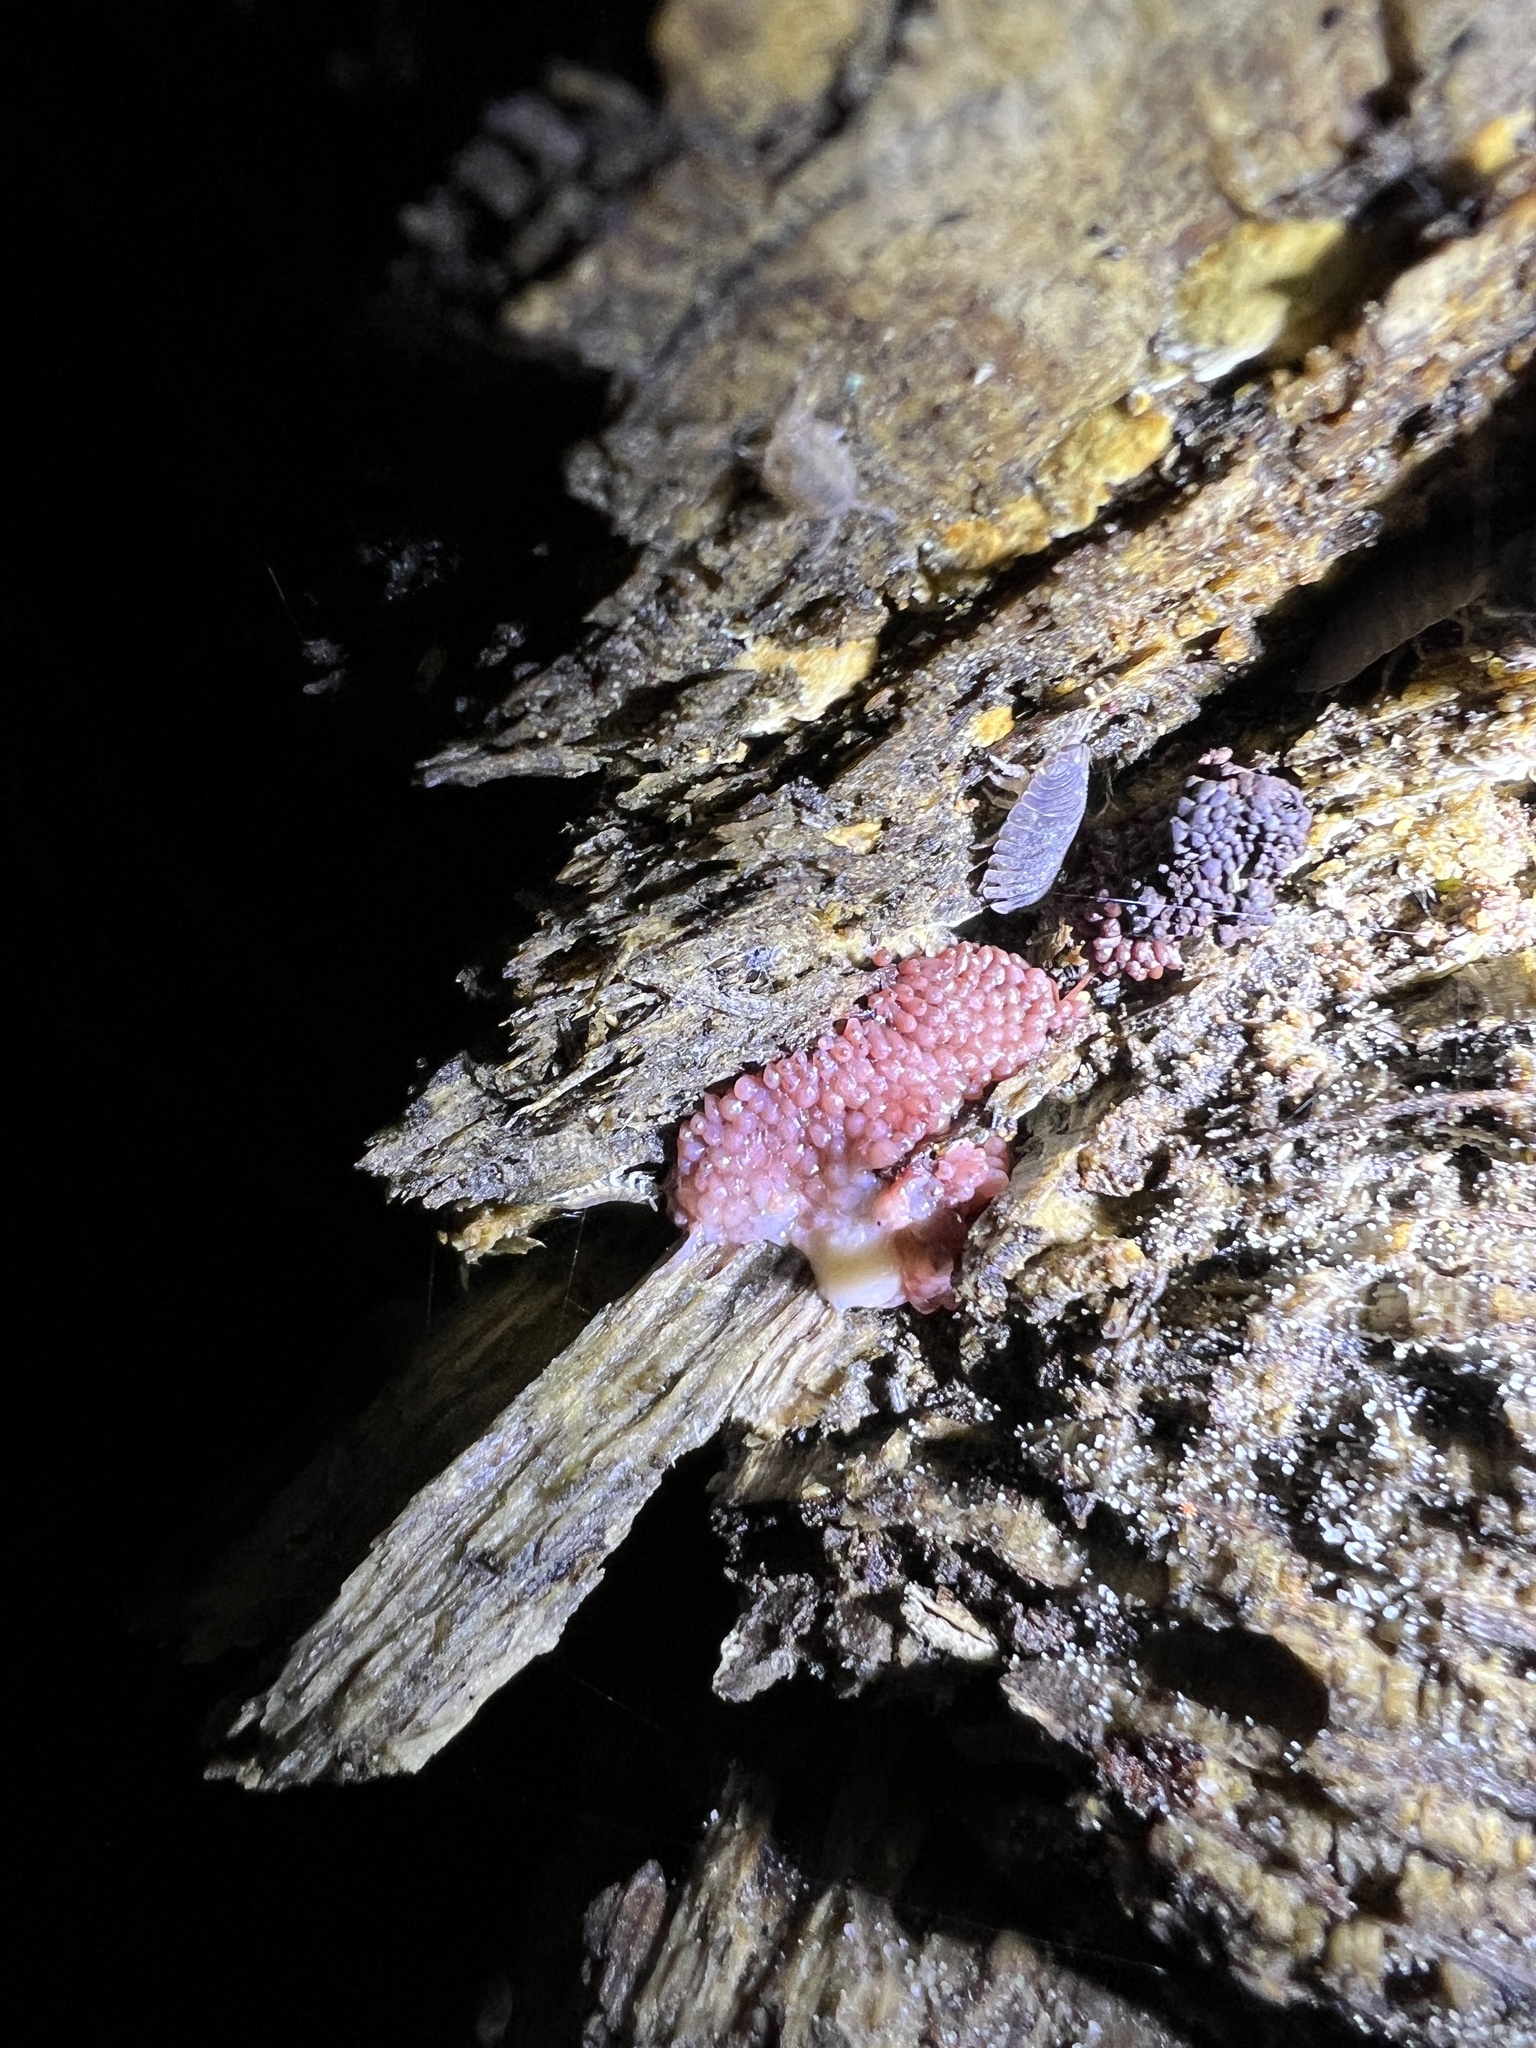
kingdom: Protozoa
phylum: Mycetozoa
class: Myxomycetes
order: Cribrariales
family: Tubiferaceae
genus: Tubifera
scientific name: Tubifera ferruginosa
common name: Red raspberry slime mold
